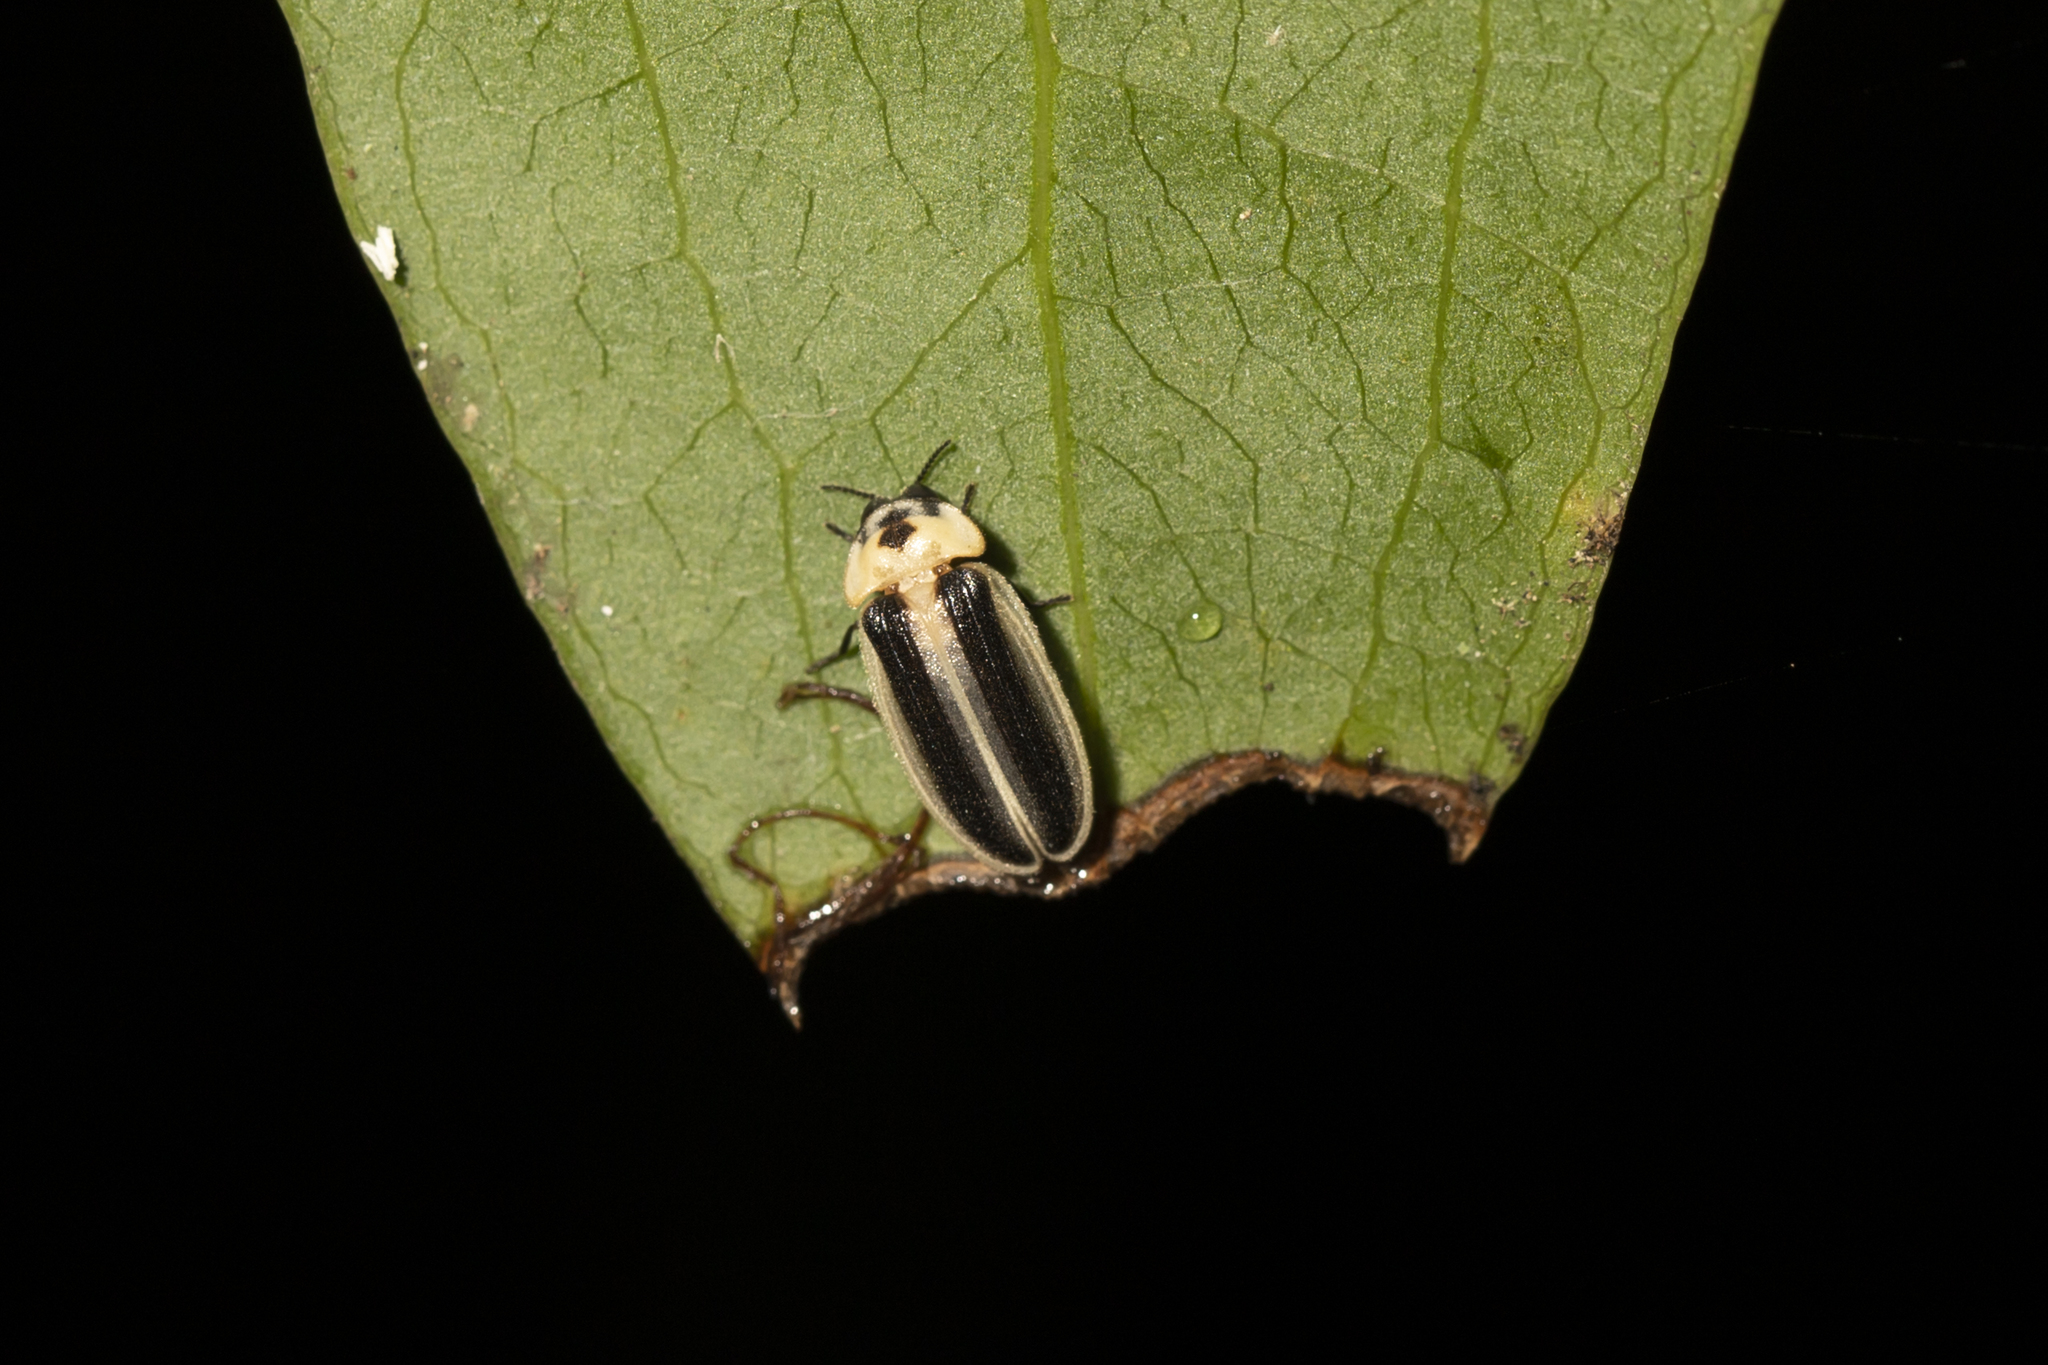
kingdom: Animalia
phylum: Arthropoda
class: Insecta
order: Coleoptera
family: Lampyridae
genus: Atyphella
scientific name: Atyphella olivieri
